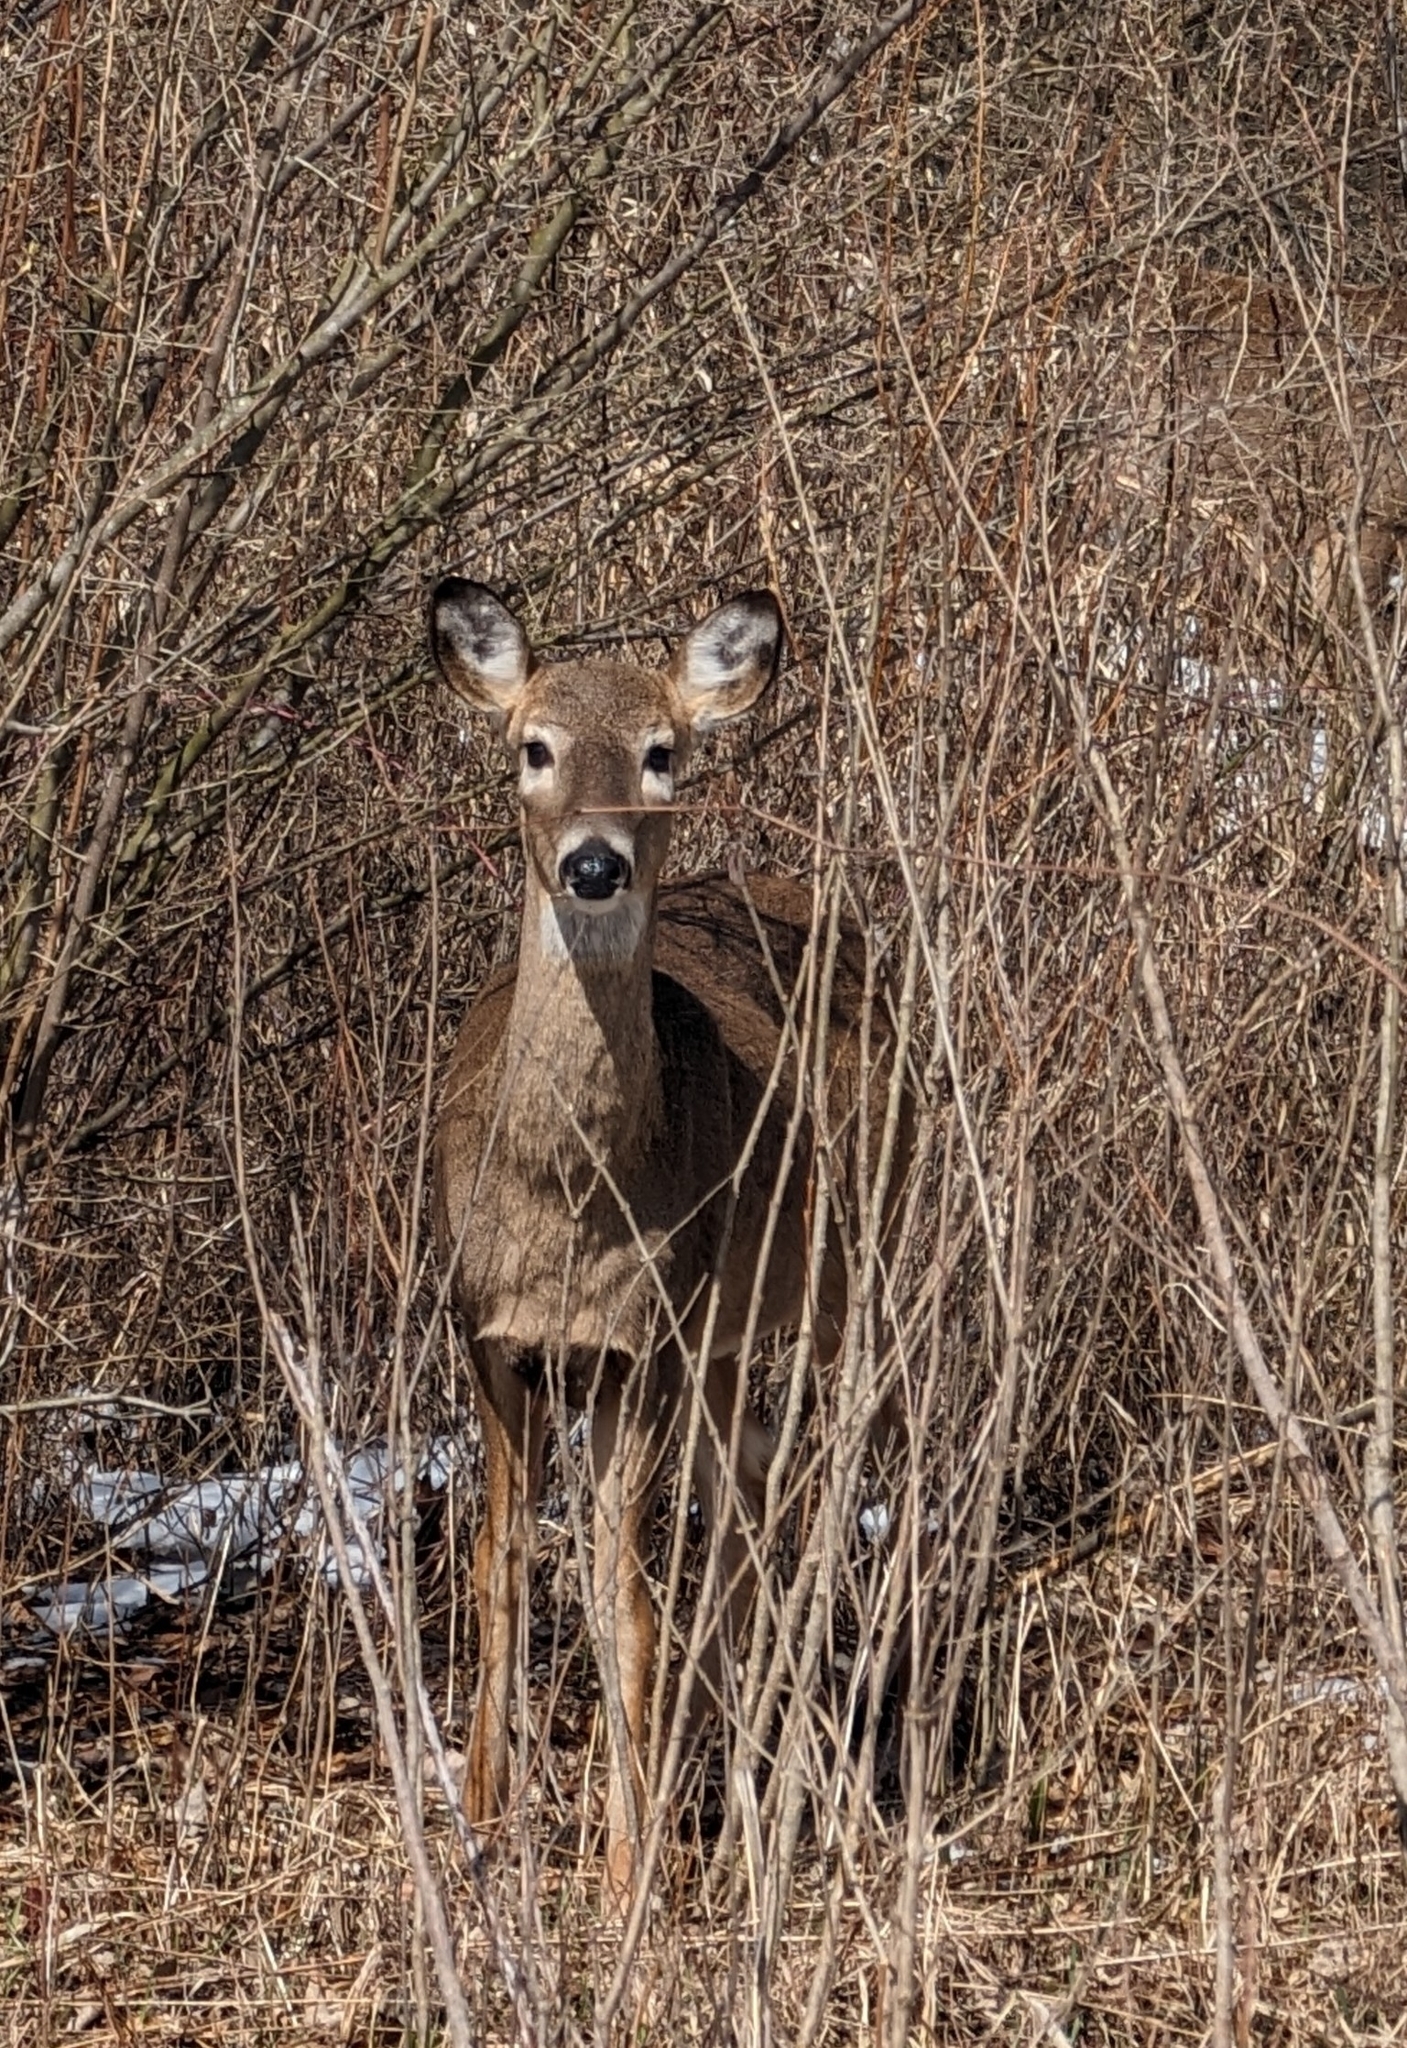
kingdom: Animalia
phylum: Chordata
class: Mammalia
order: Artiodactyla
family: Cervidae
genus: Odocoileus
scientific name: Odocoileus virginianus
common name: White-tailed deer
